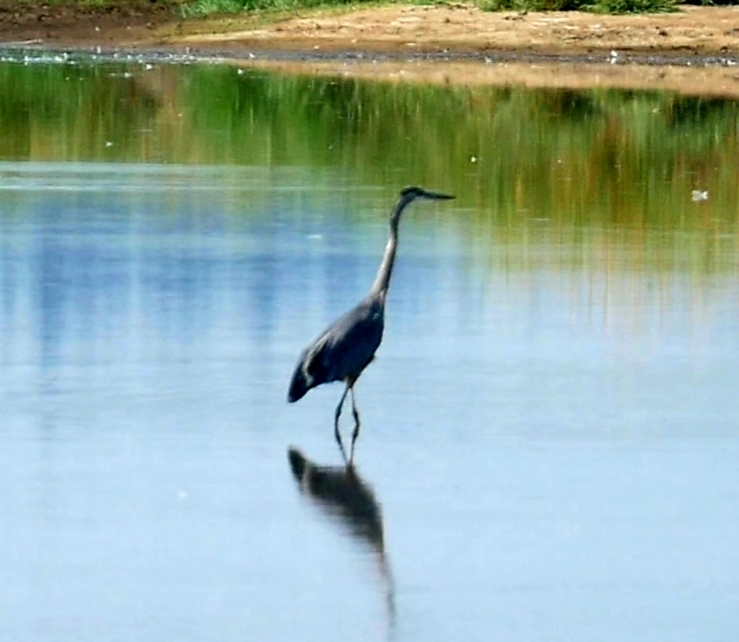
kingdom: Animalia
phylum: Chordata
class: Aves
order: Pelecaniformes
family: Ardeidae
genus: Ardea
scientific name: Ardea herodias
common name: Great blue heron
